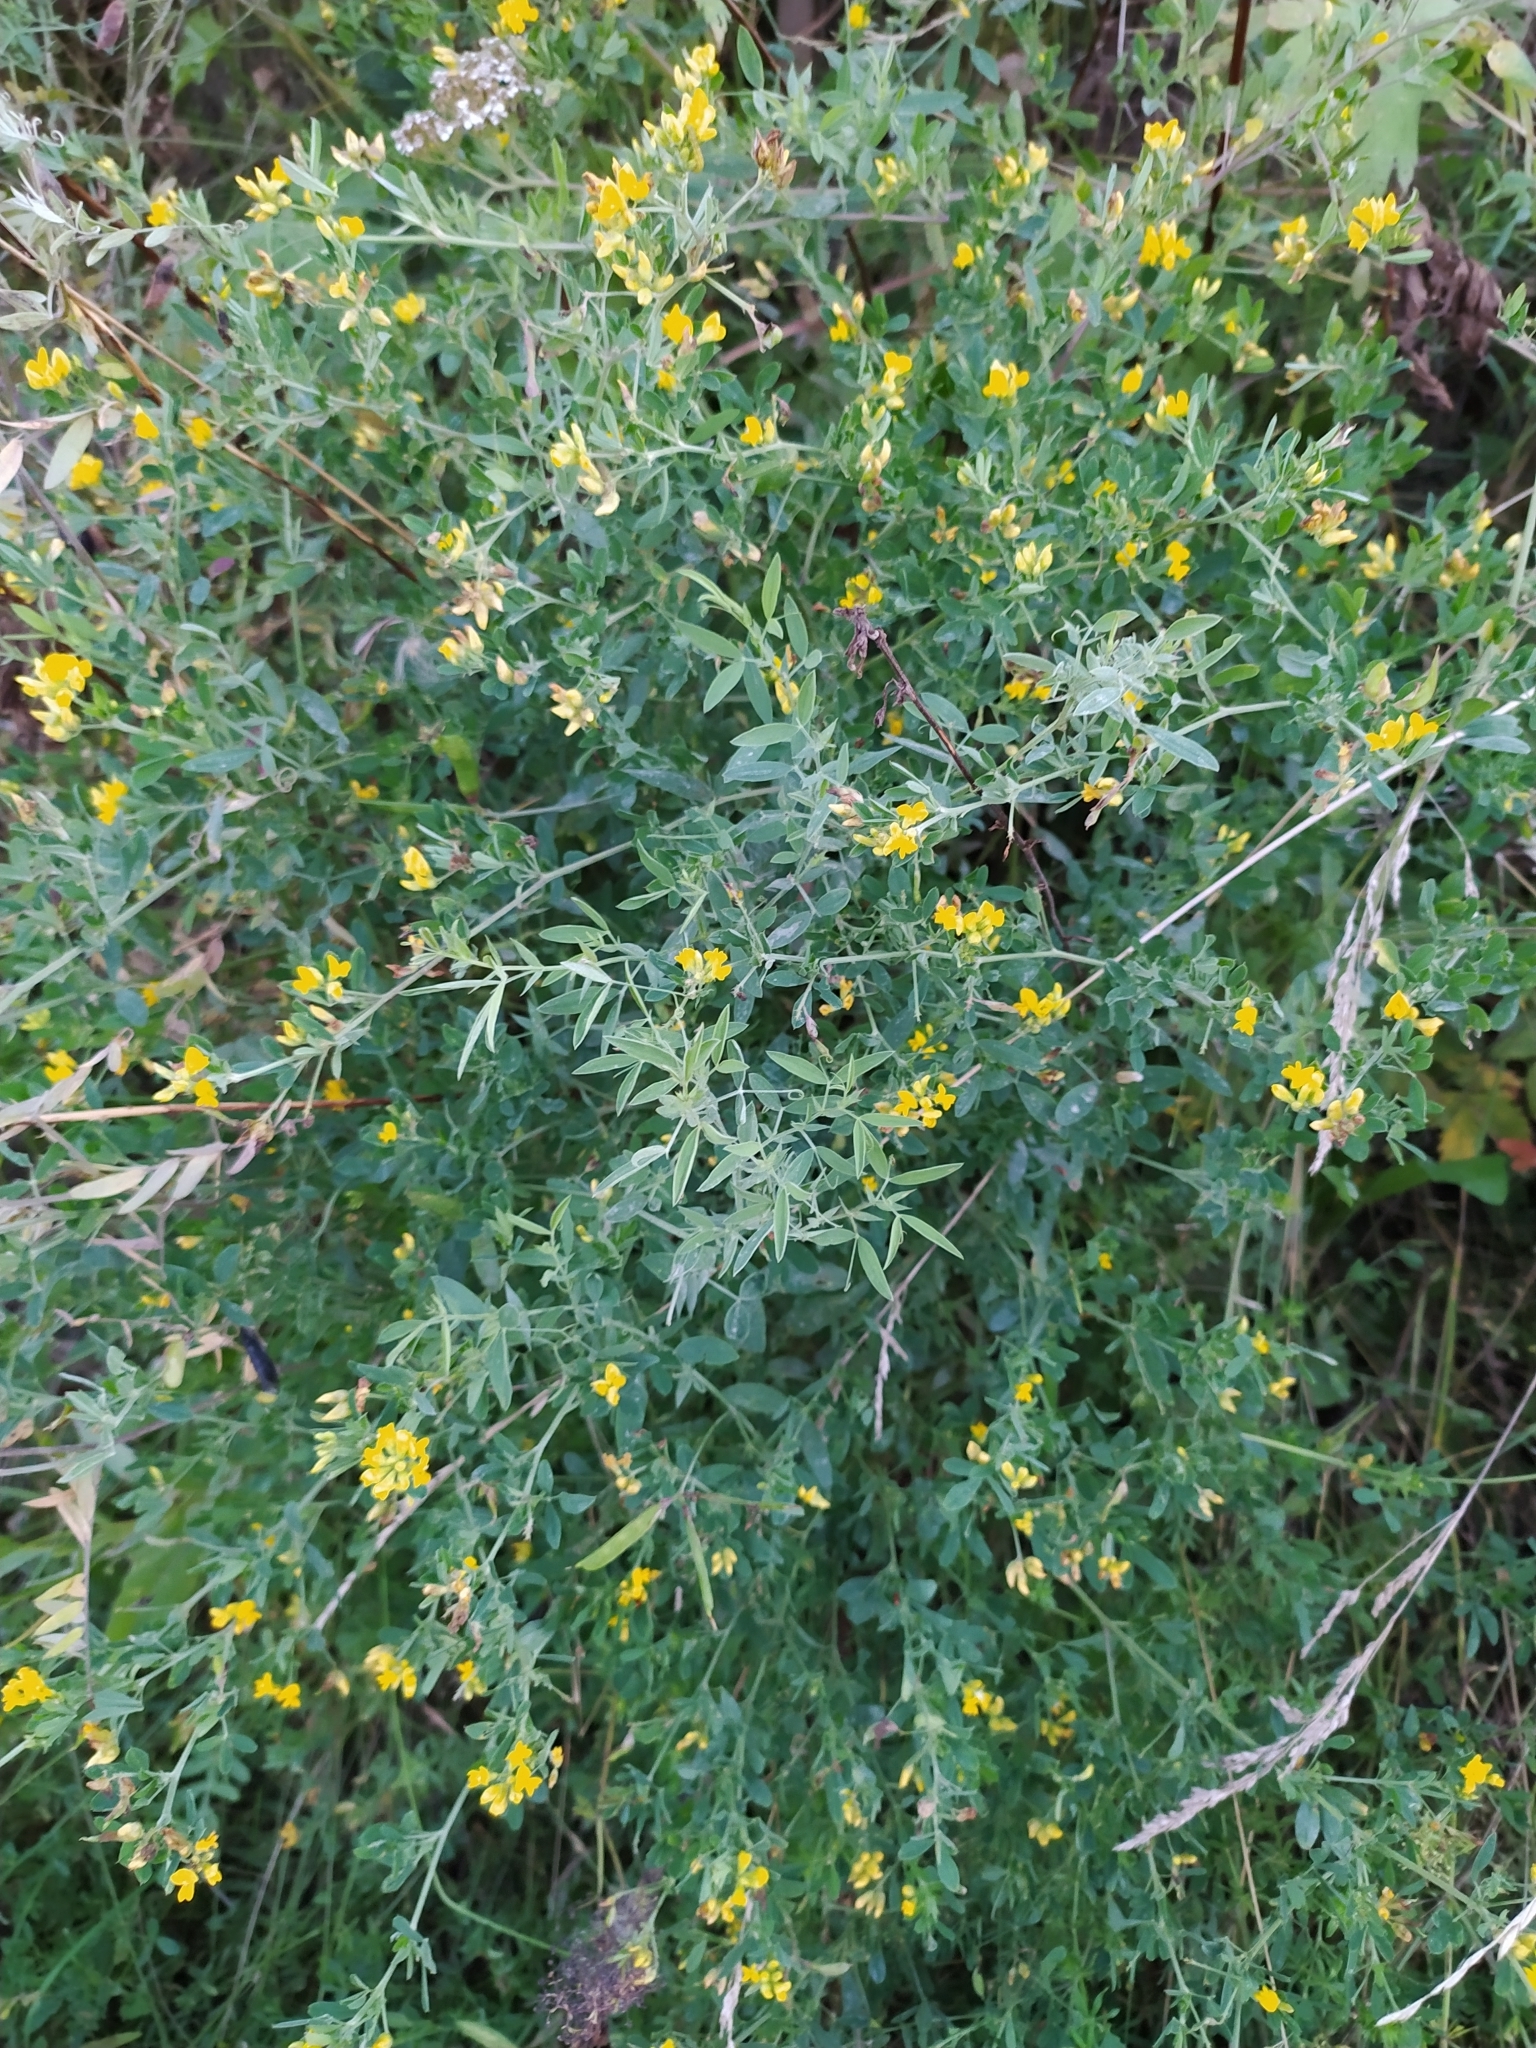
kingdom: Plantae
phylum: Tracheophyta
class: Magnoliopsida
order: Fabales
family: Fabaceae
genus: Medicago
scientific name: Medicago falcata
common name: Sickle medick
